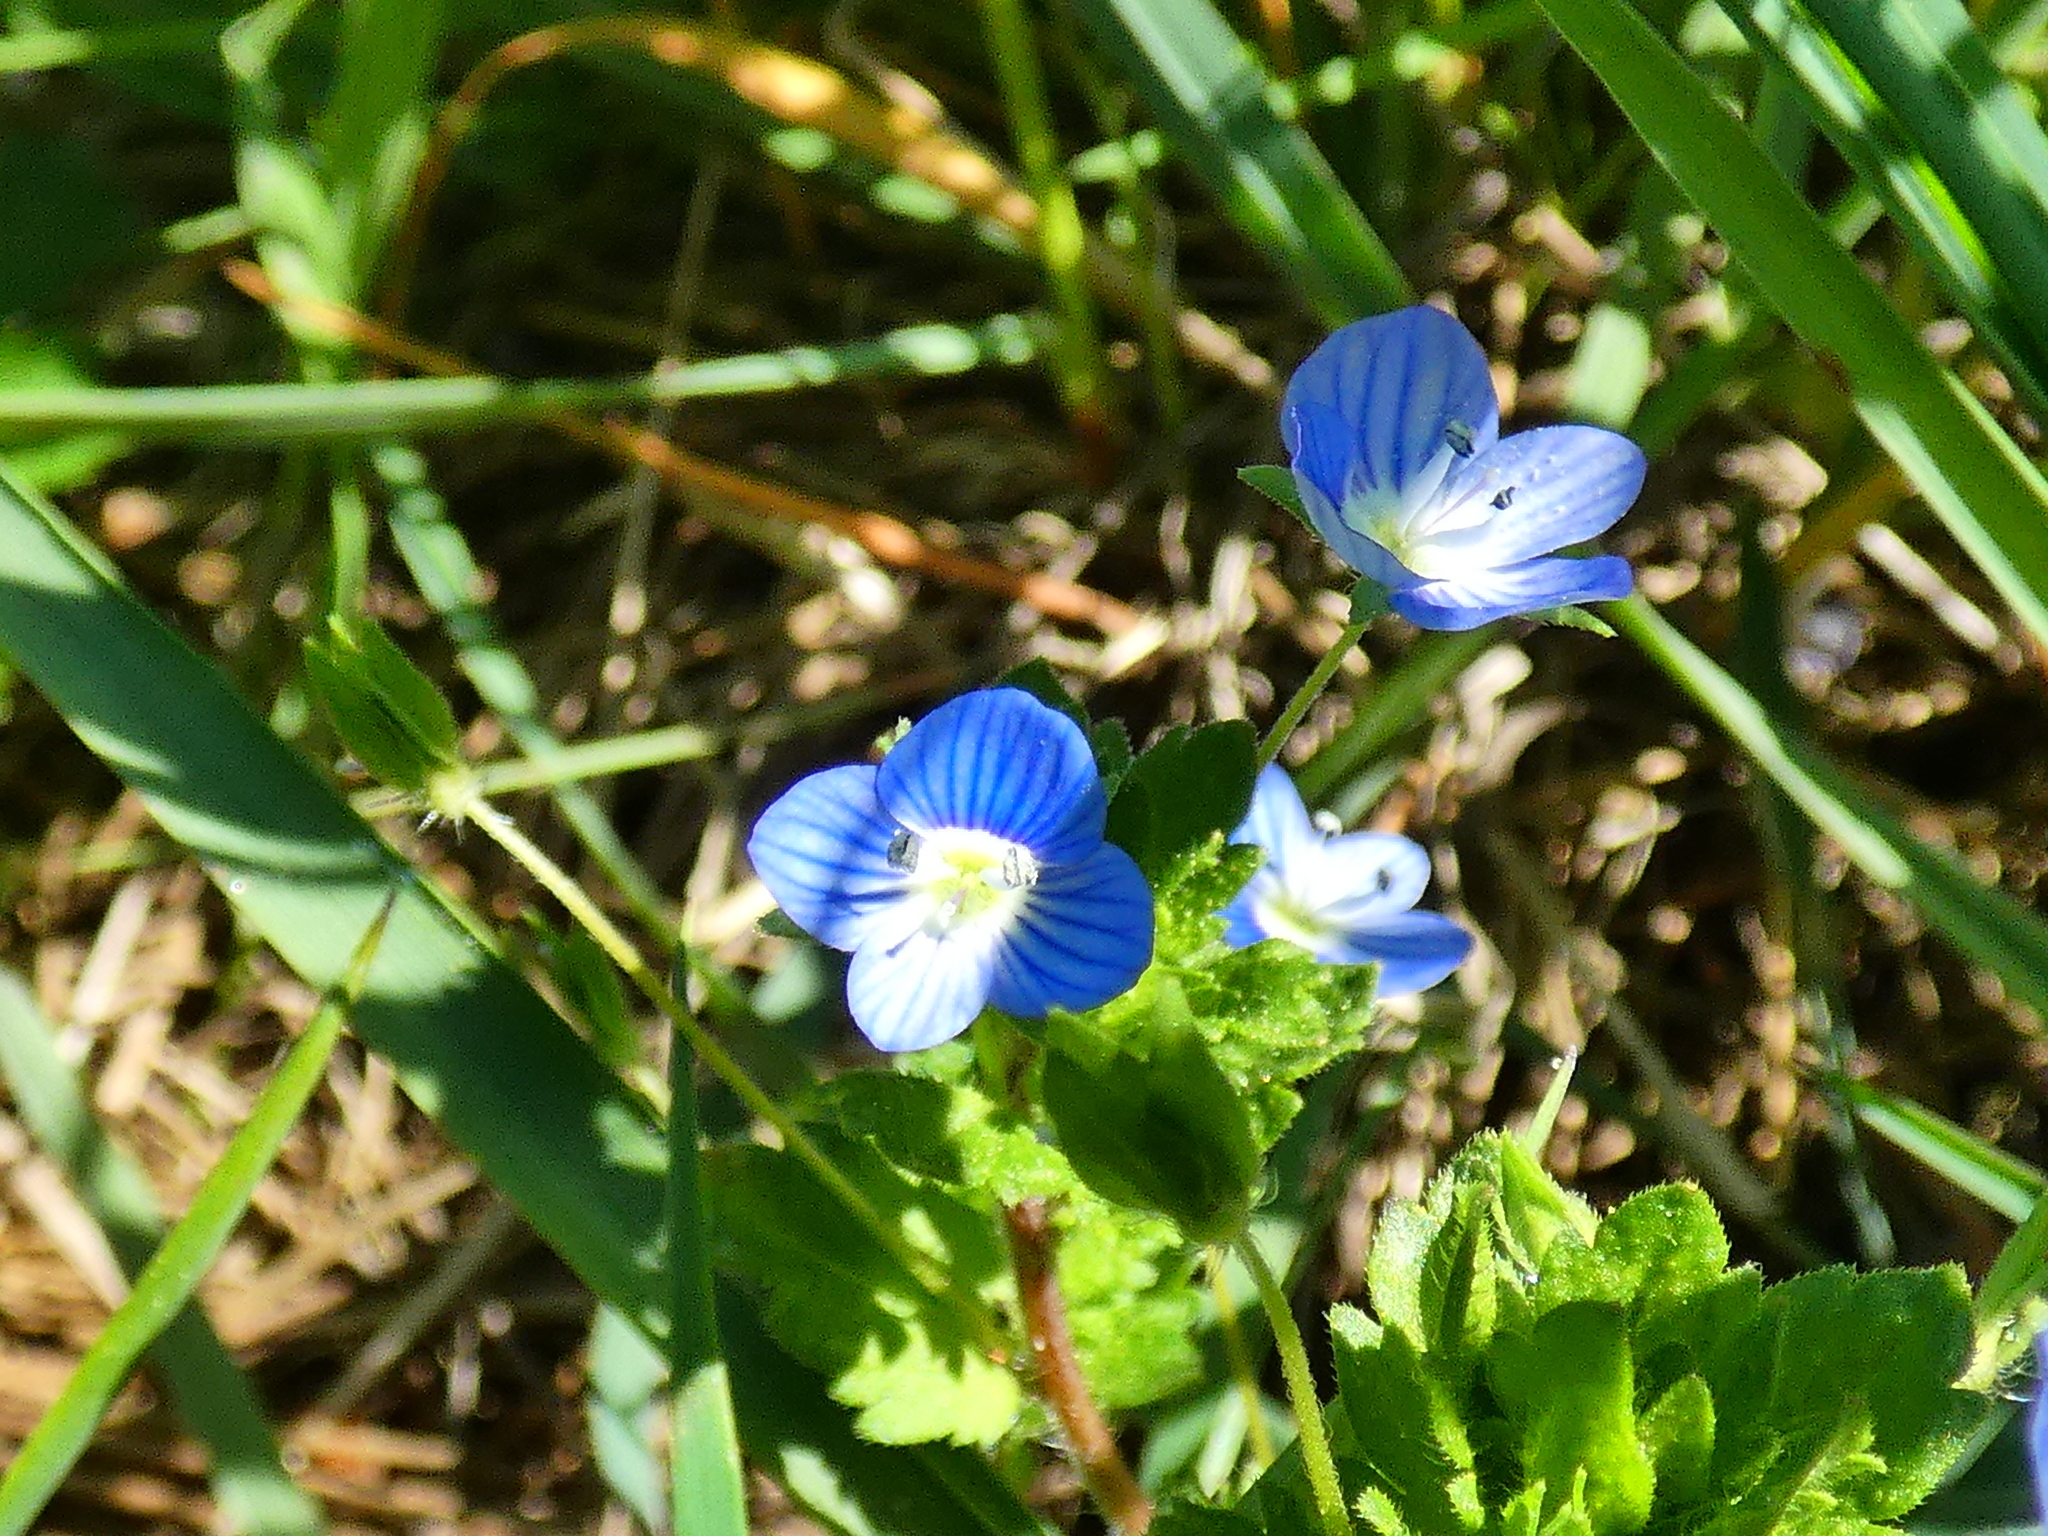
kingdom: Plantae
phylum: Tracheophyta
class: Magnoliopsida
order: Lamiales
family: Plantaginaceae
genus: Veronica
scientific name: Veronica persica
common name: Common field-speedwell
